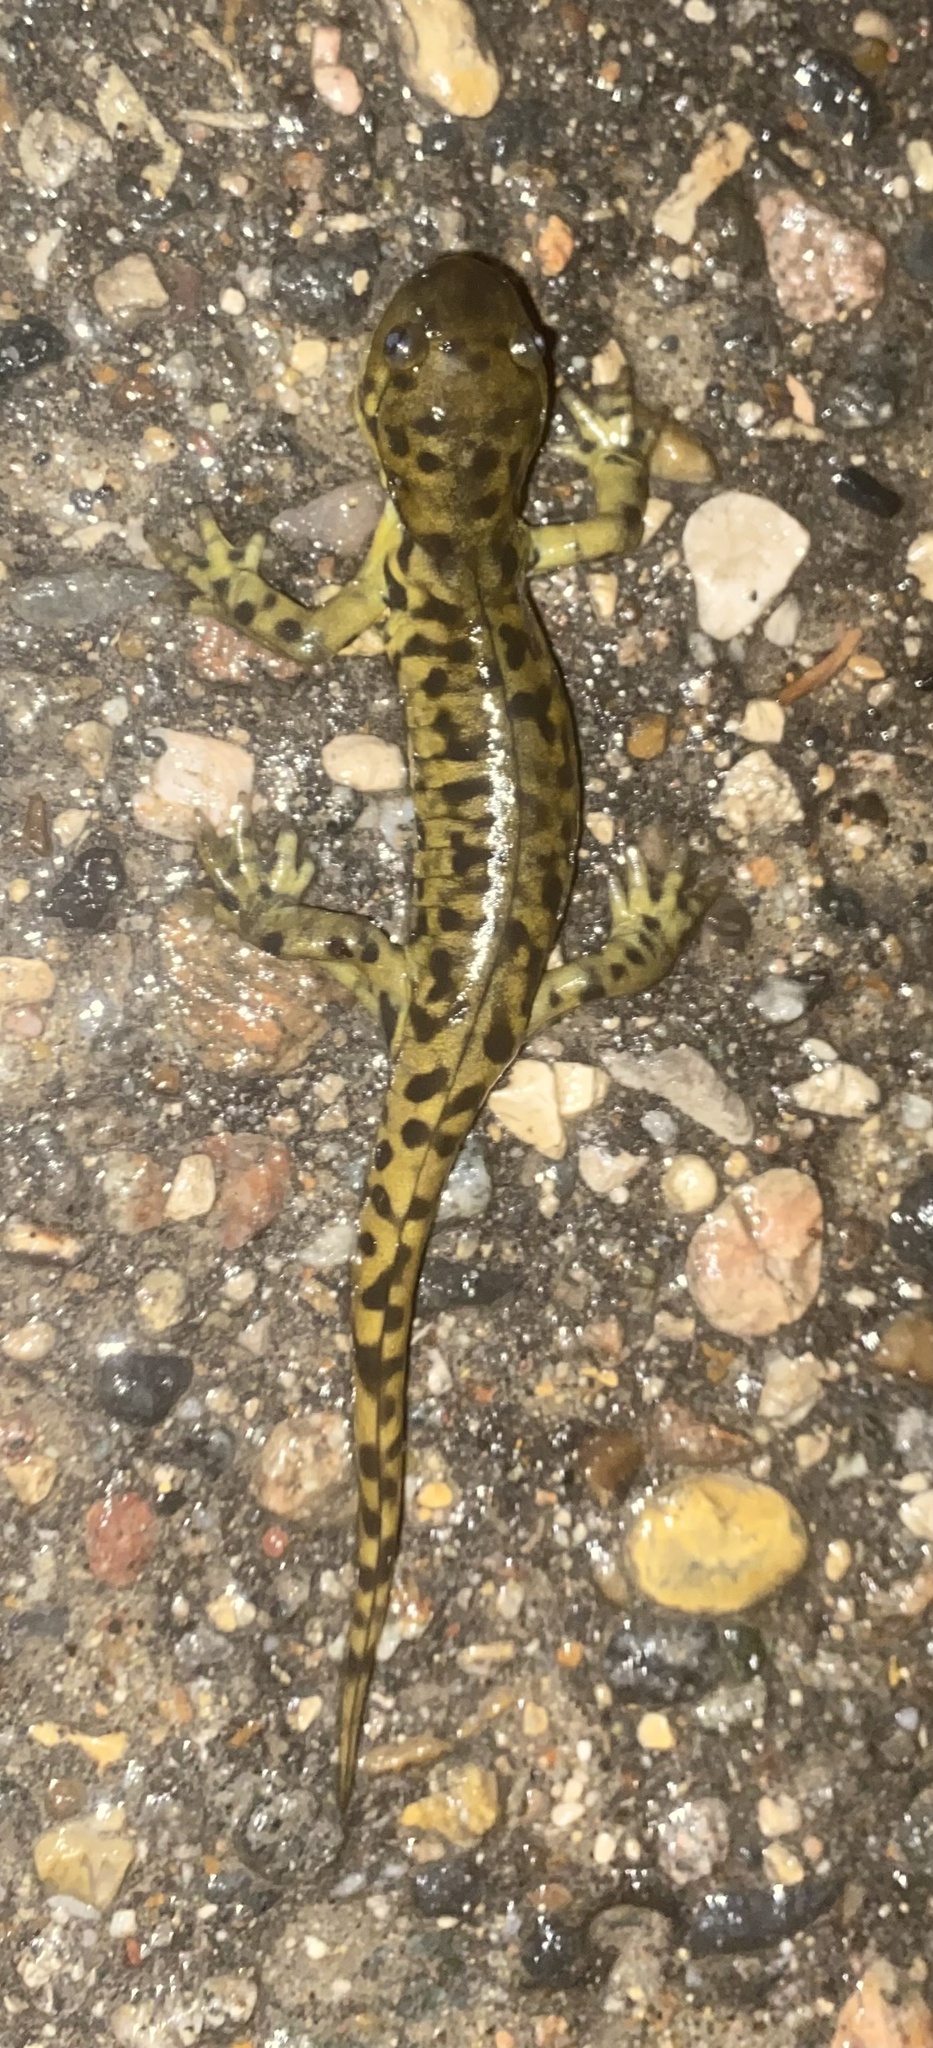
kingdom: Animalia
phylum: Chordata
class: Amphibia
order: Caudata
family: Ambystomatidae
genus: Ambystoma
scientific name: Ambystoma mavortium
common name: Western tiger salamander
